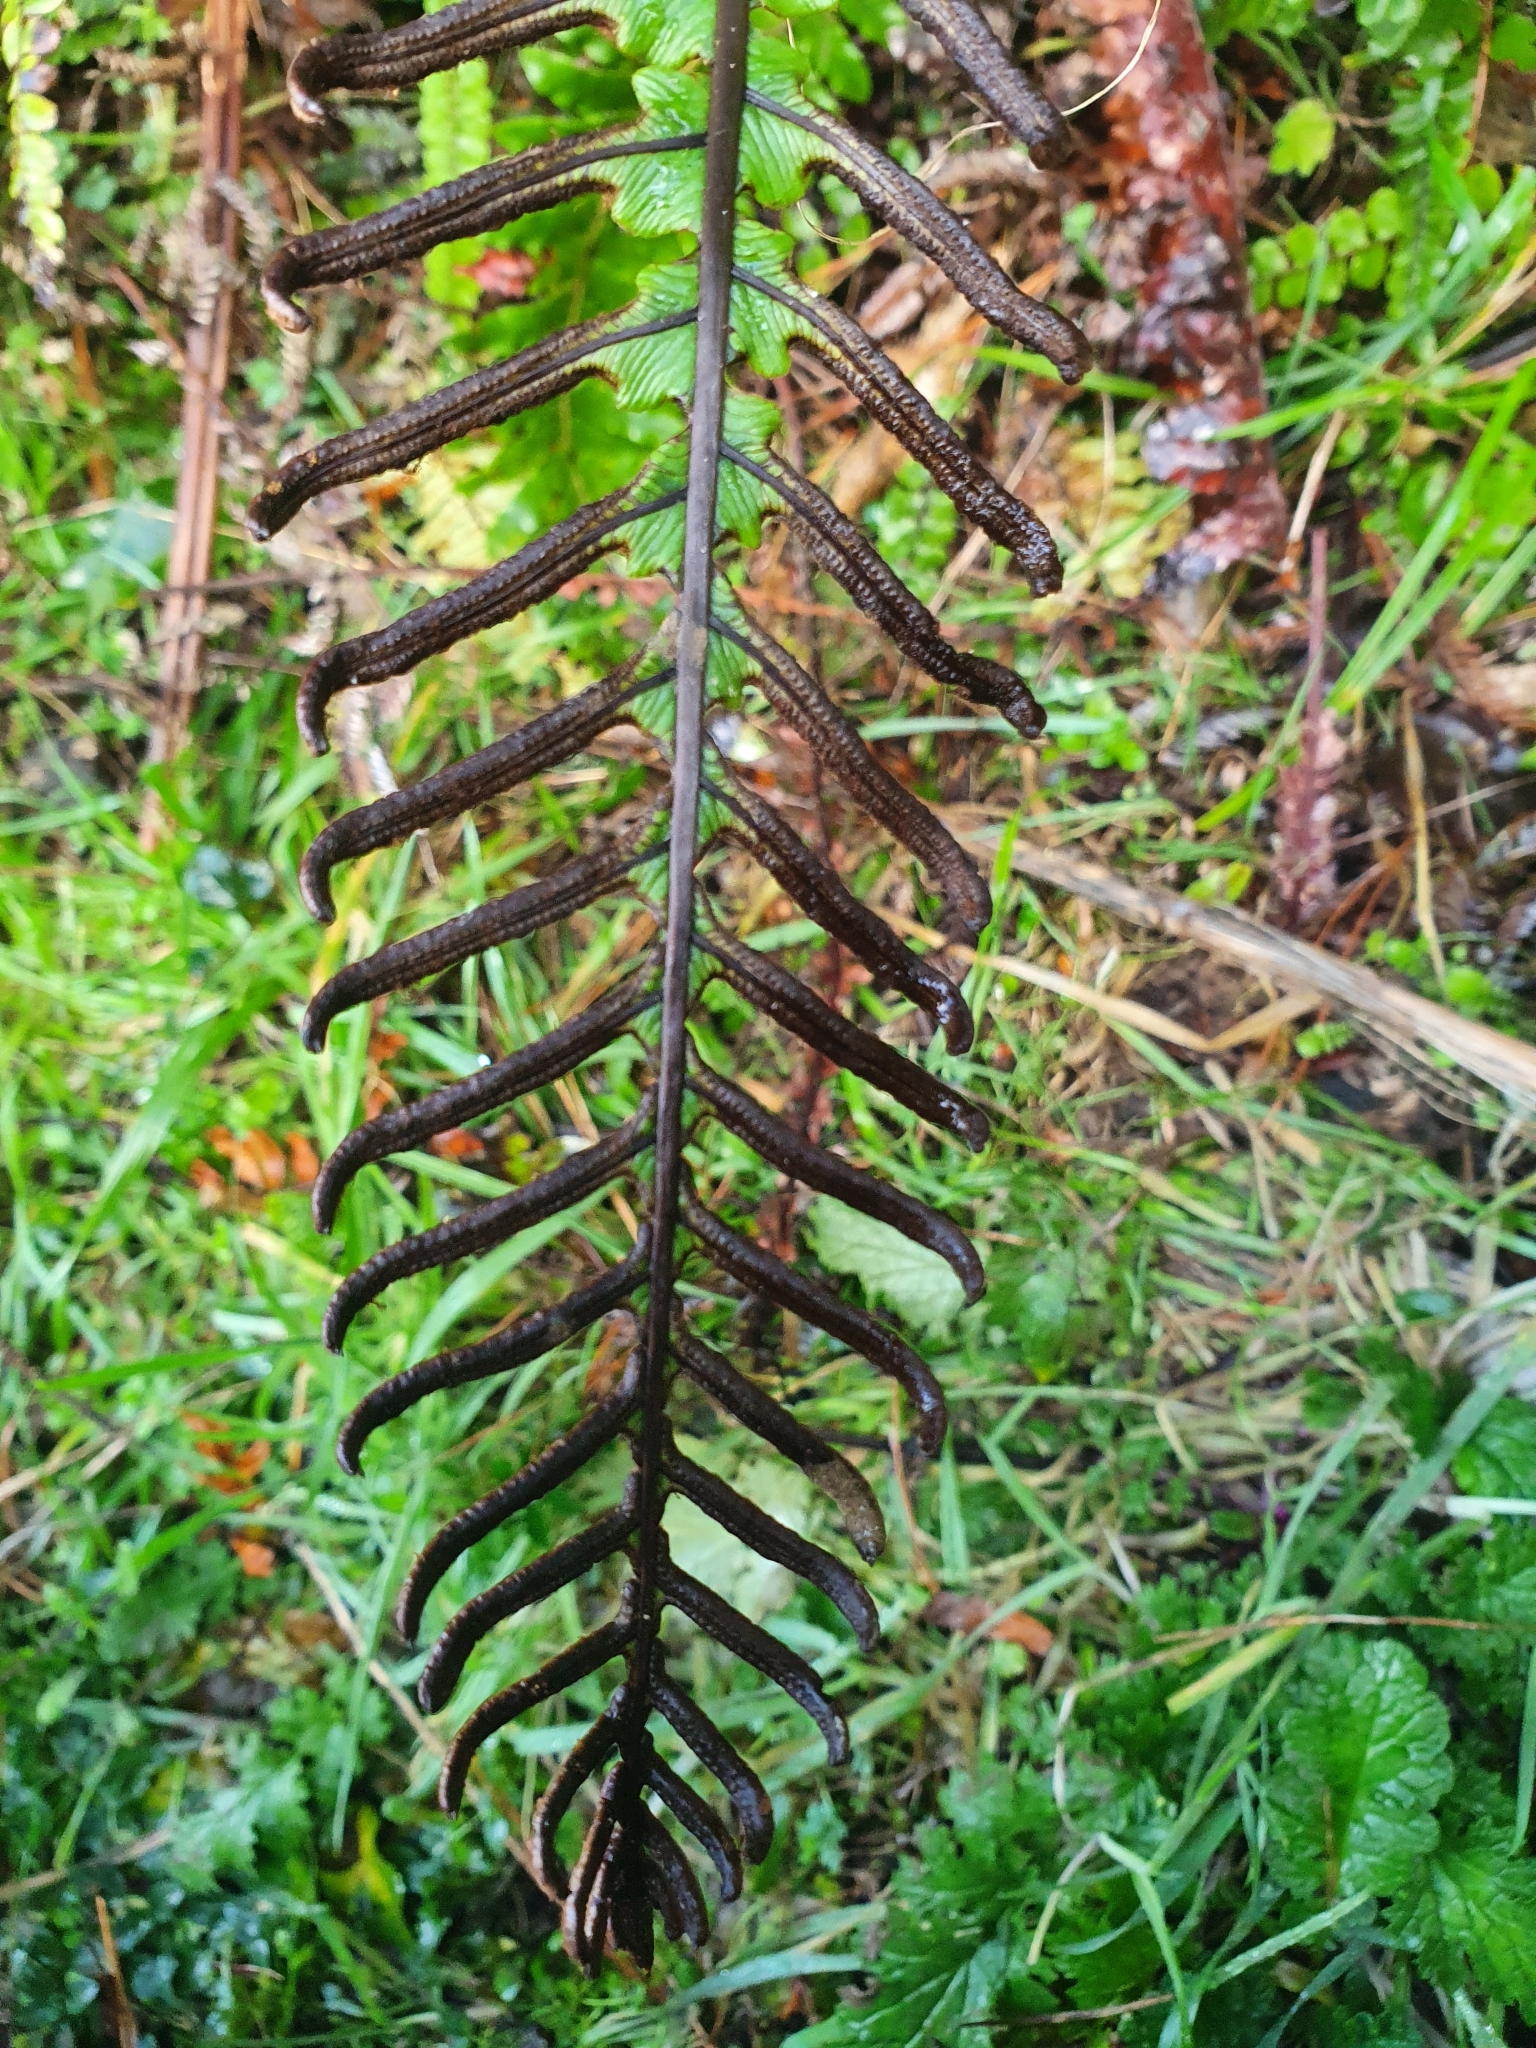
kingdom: Plantae
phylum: Tracheophyta
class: Polypodiopsida
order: Polypodiales
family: Blechnaceae
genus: Lomaria
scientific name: Lomaria discolor
